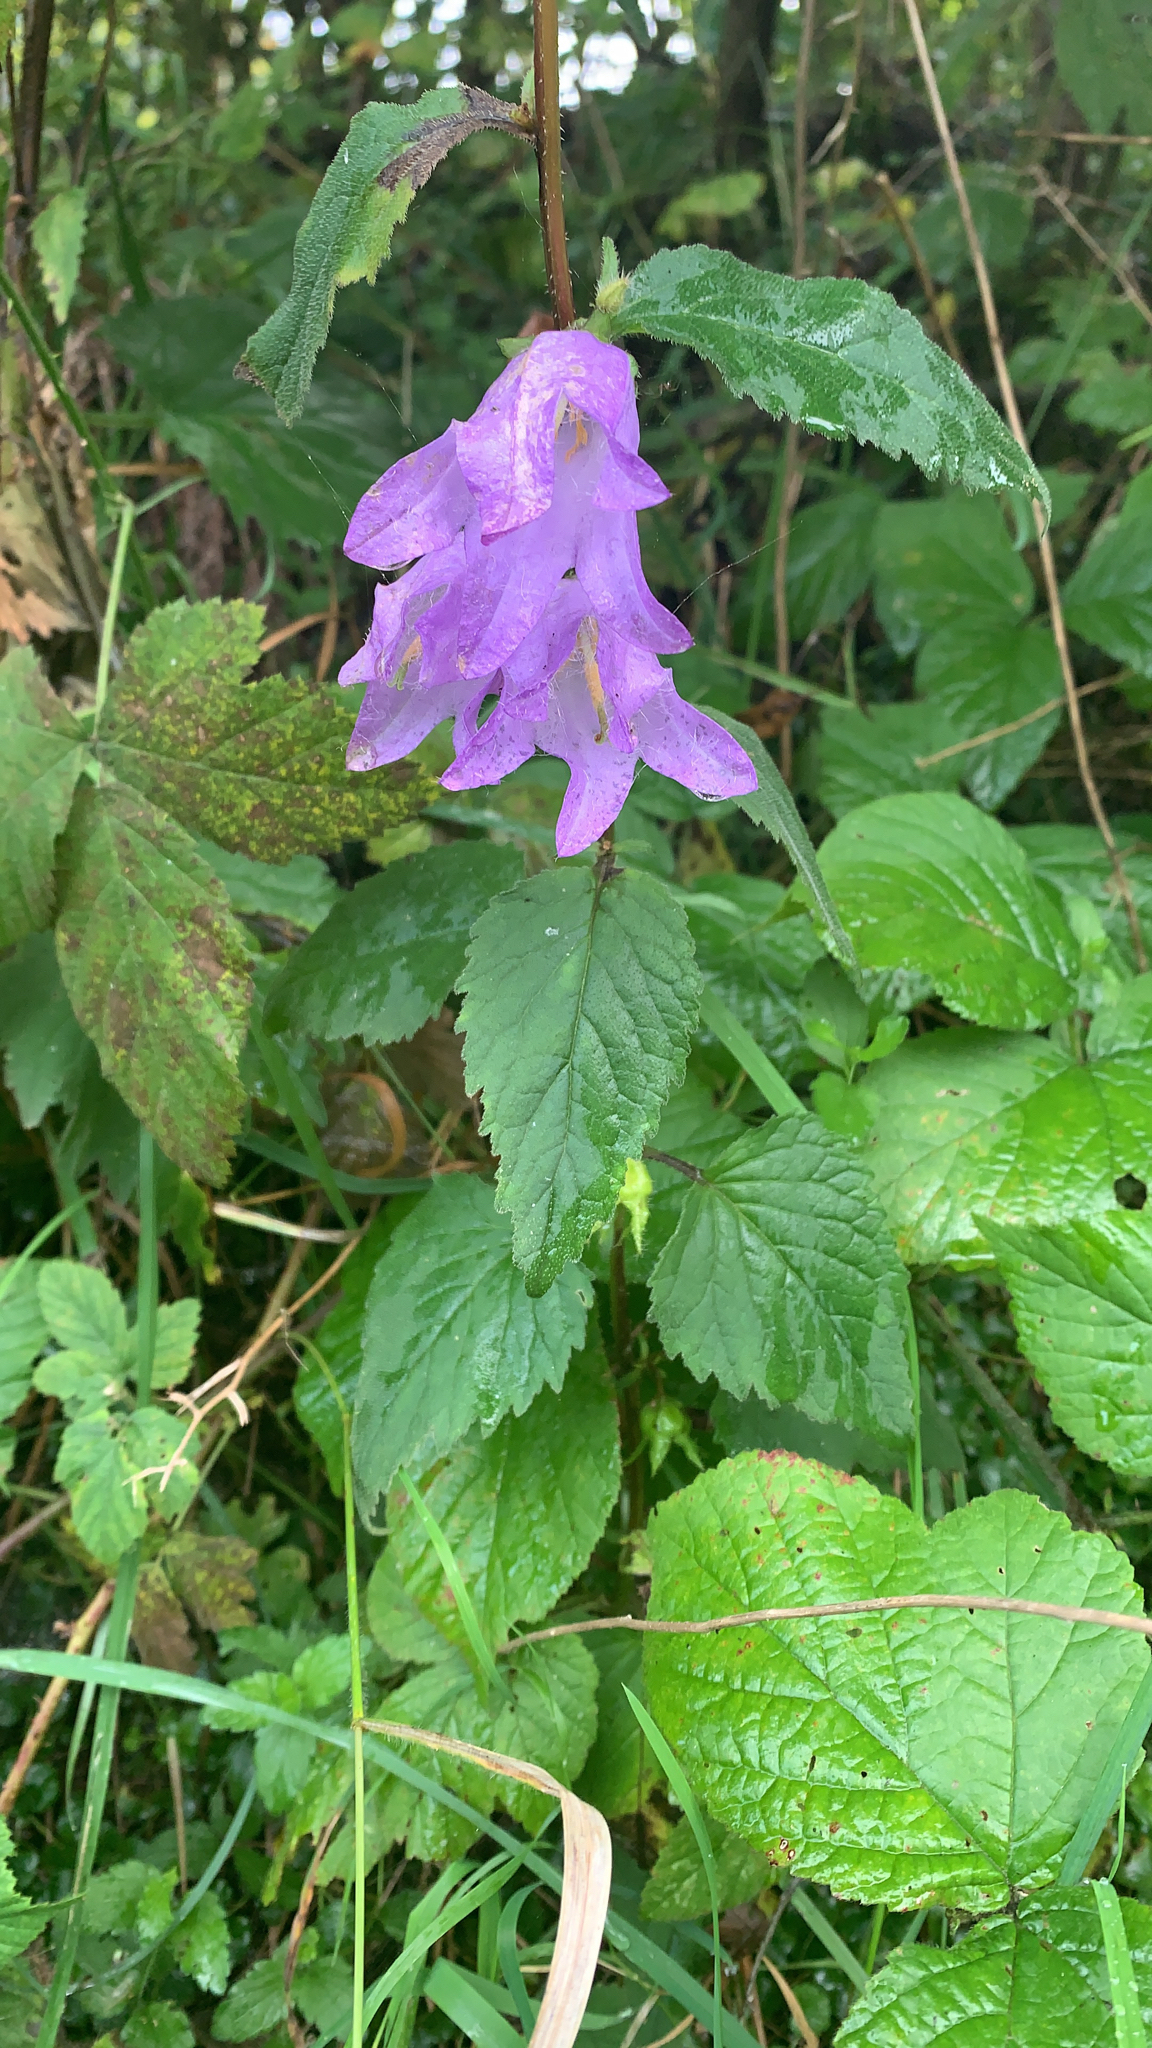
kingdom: Plantae
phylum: Tracheophyta
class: Magnoliopsida
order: Asterales
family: Campanulaceae
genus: Campanula
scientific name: Campanula trachelium
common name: Nettle-leaved bellflower
